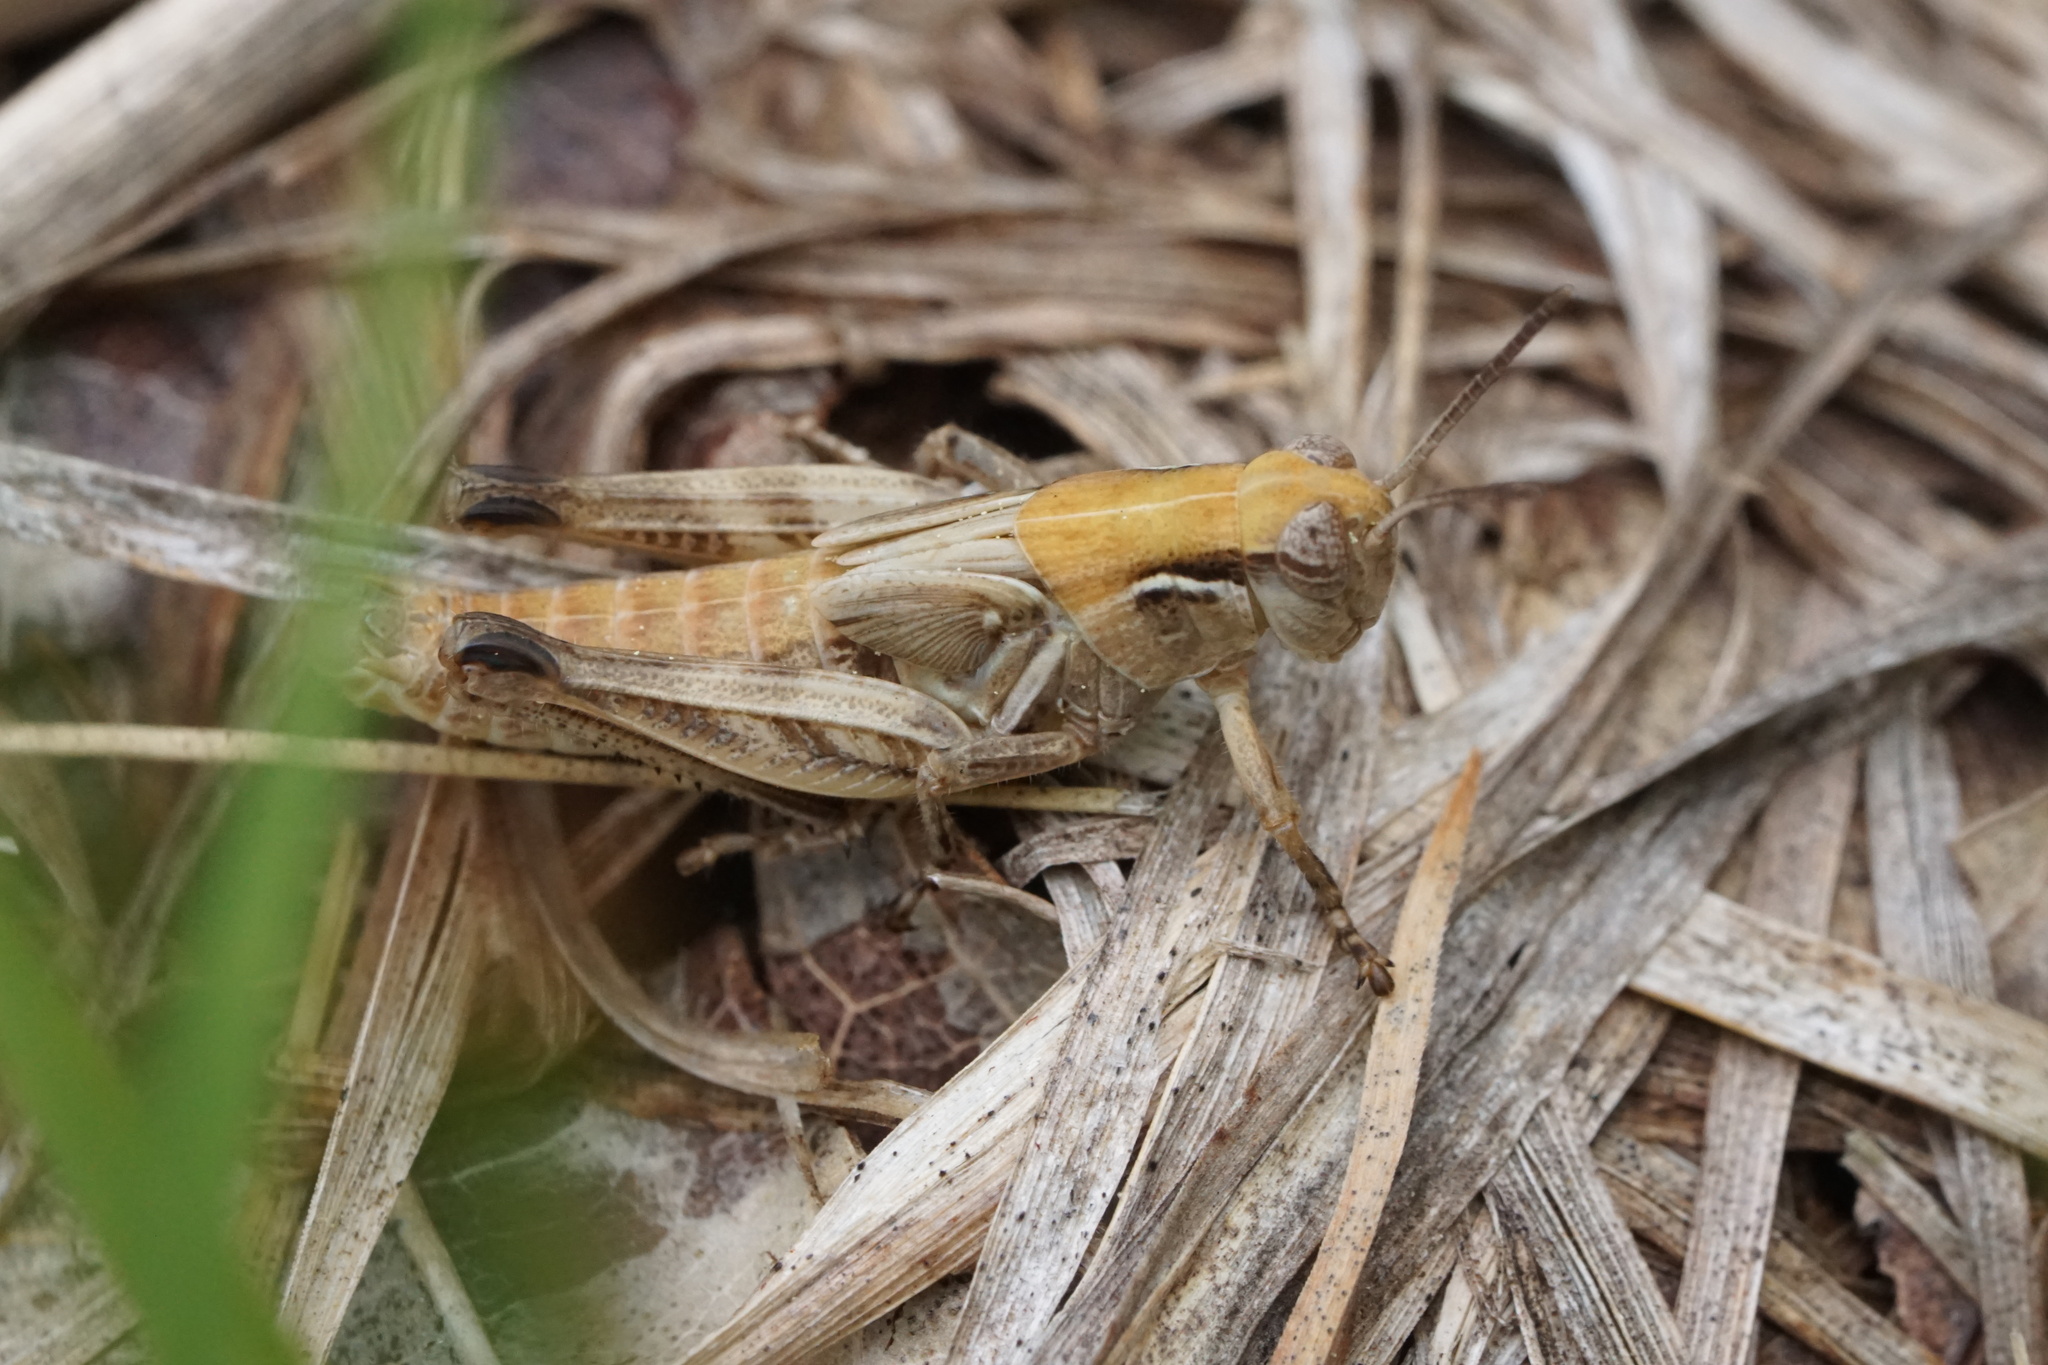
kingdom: Animalia
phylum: Arthropoda
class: Insecta
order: Orthoptera
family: Acrididae
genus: Melanoplus
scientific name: Melanoplus confusus
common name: Little pasture locust
